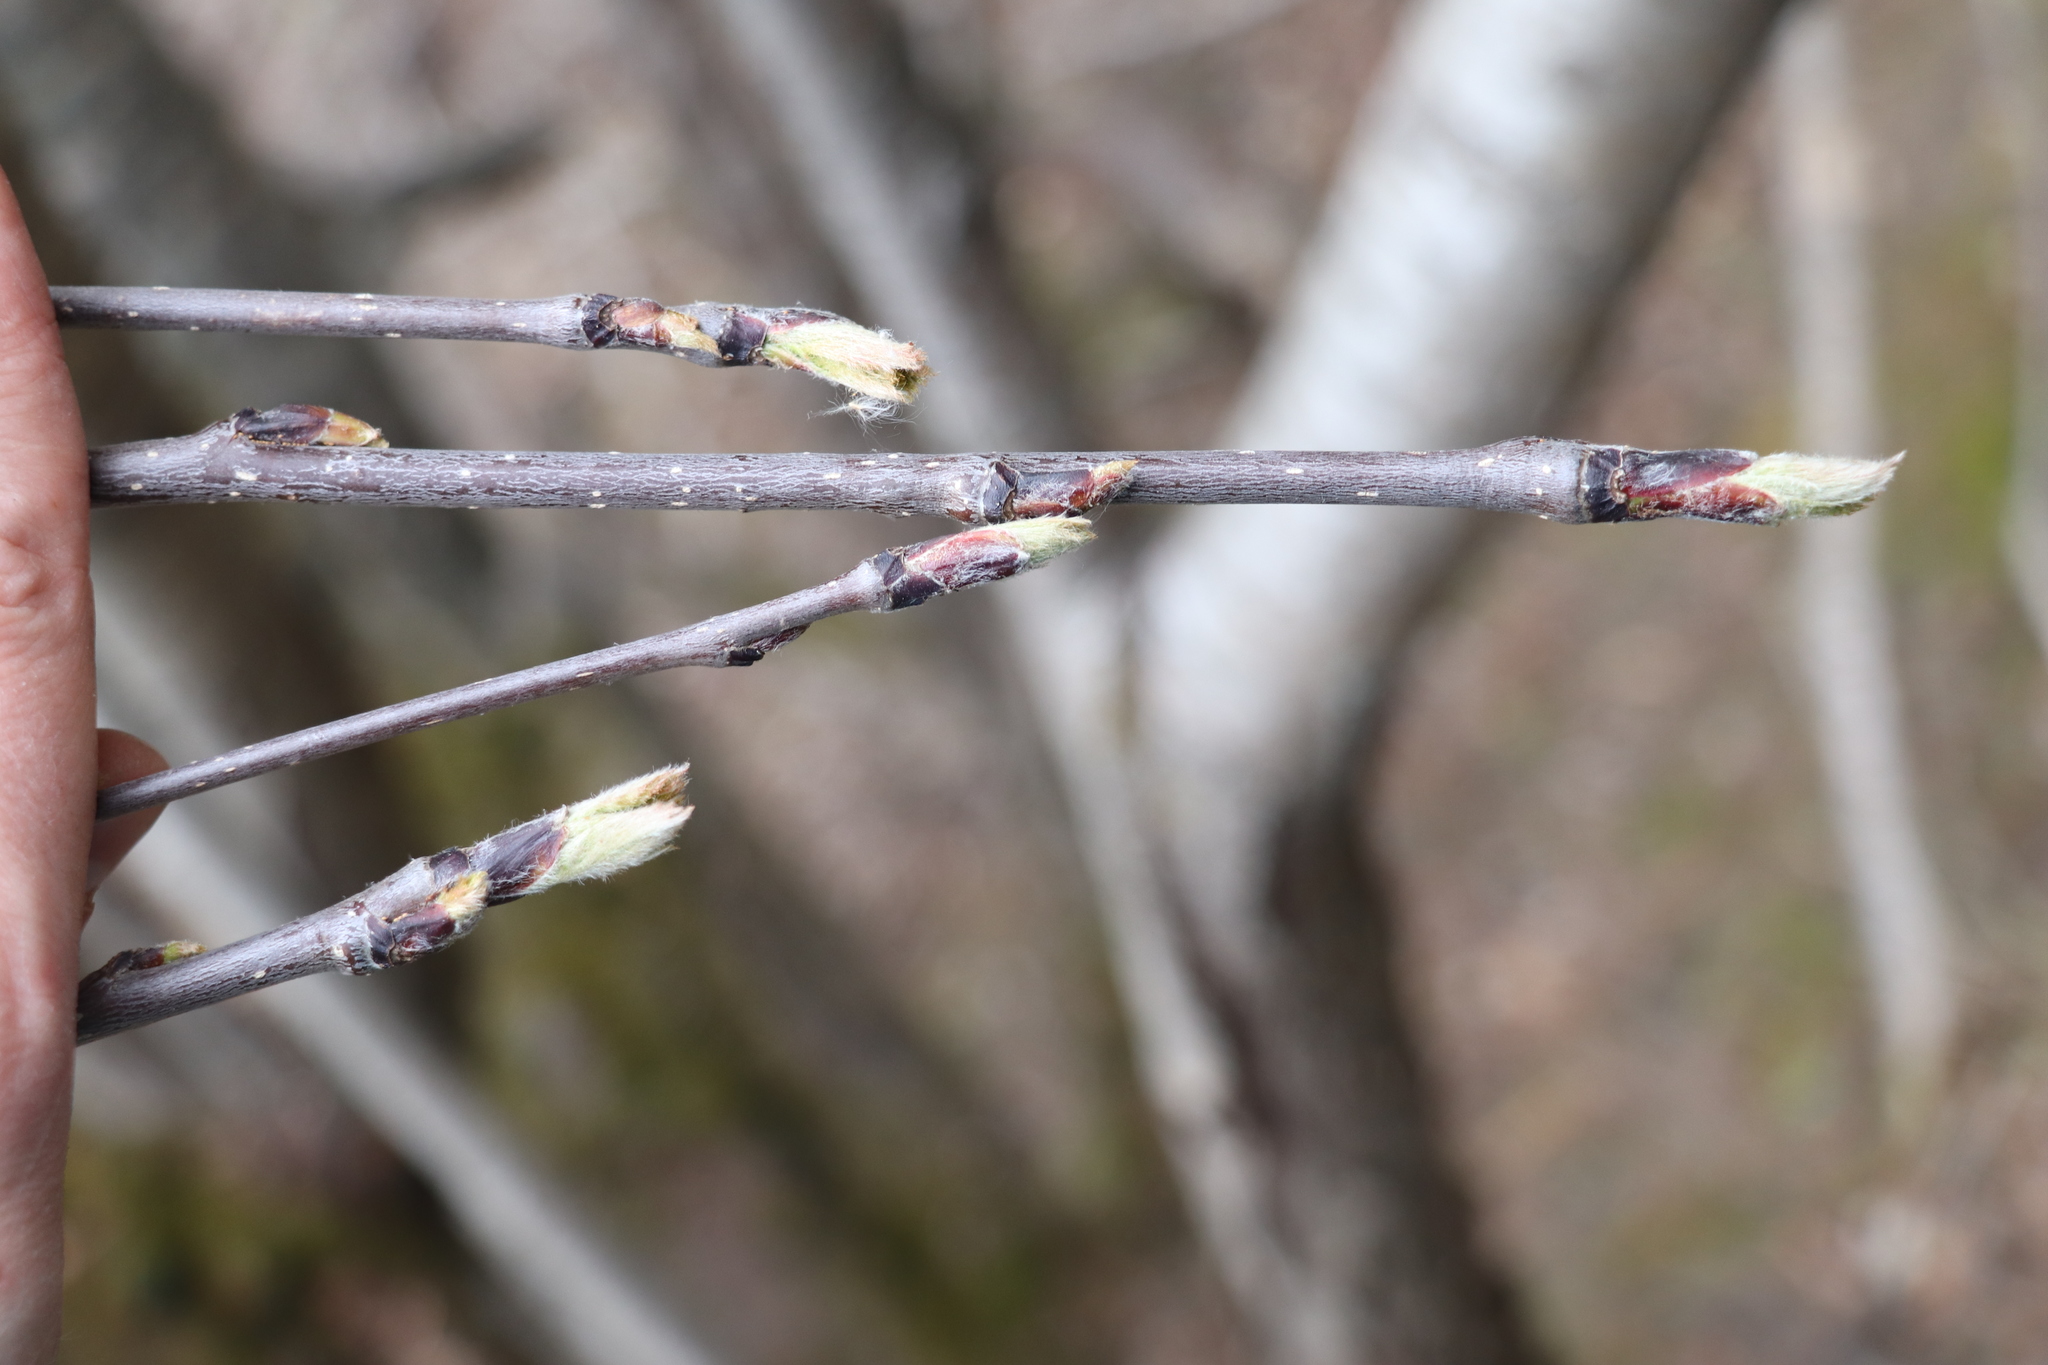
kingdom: Plantae
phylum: Tracheophyta
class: Magnoliopsida
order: Rosales
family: Rosaceae
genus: Sorbus
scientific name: Sorbus aucuparia
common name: Rowan
